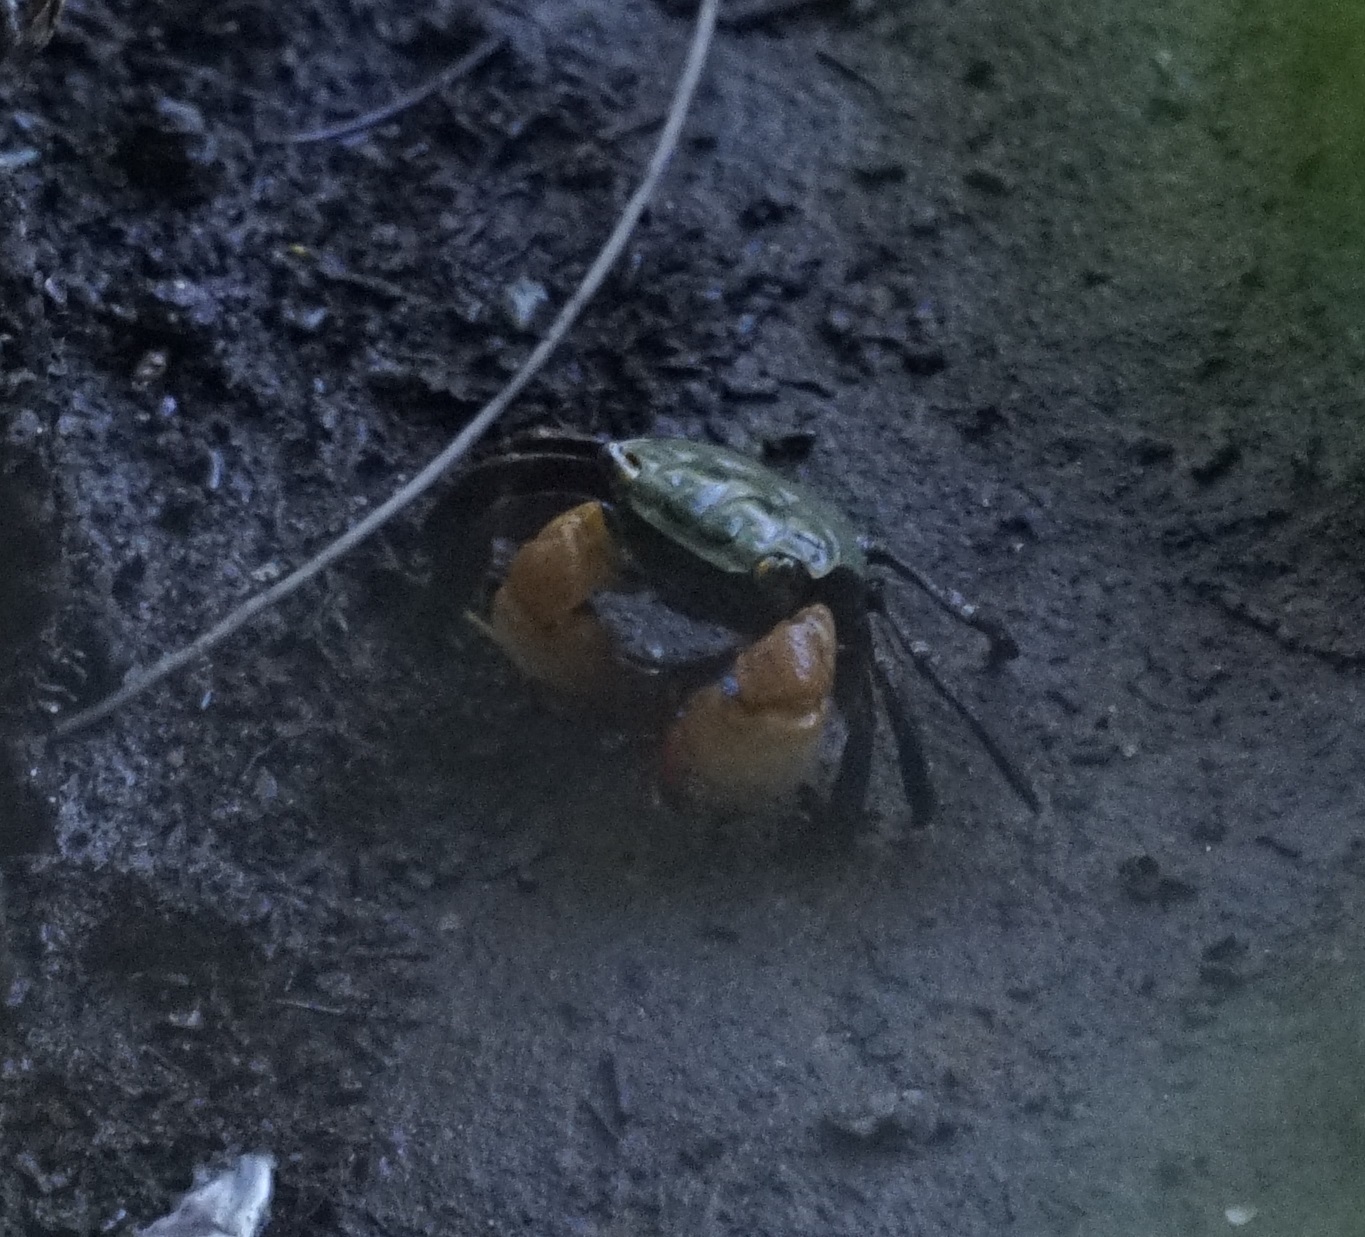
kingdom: Animalia
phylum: Arthropoda
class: Malacostraca
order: Decapoda
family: Sesarmidae
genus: Parasesarma
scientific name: Parasesarma erythodactylum
